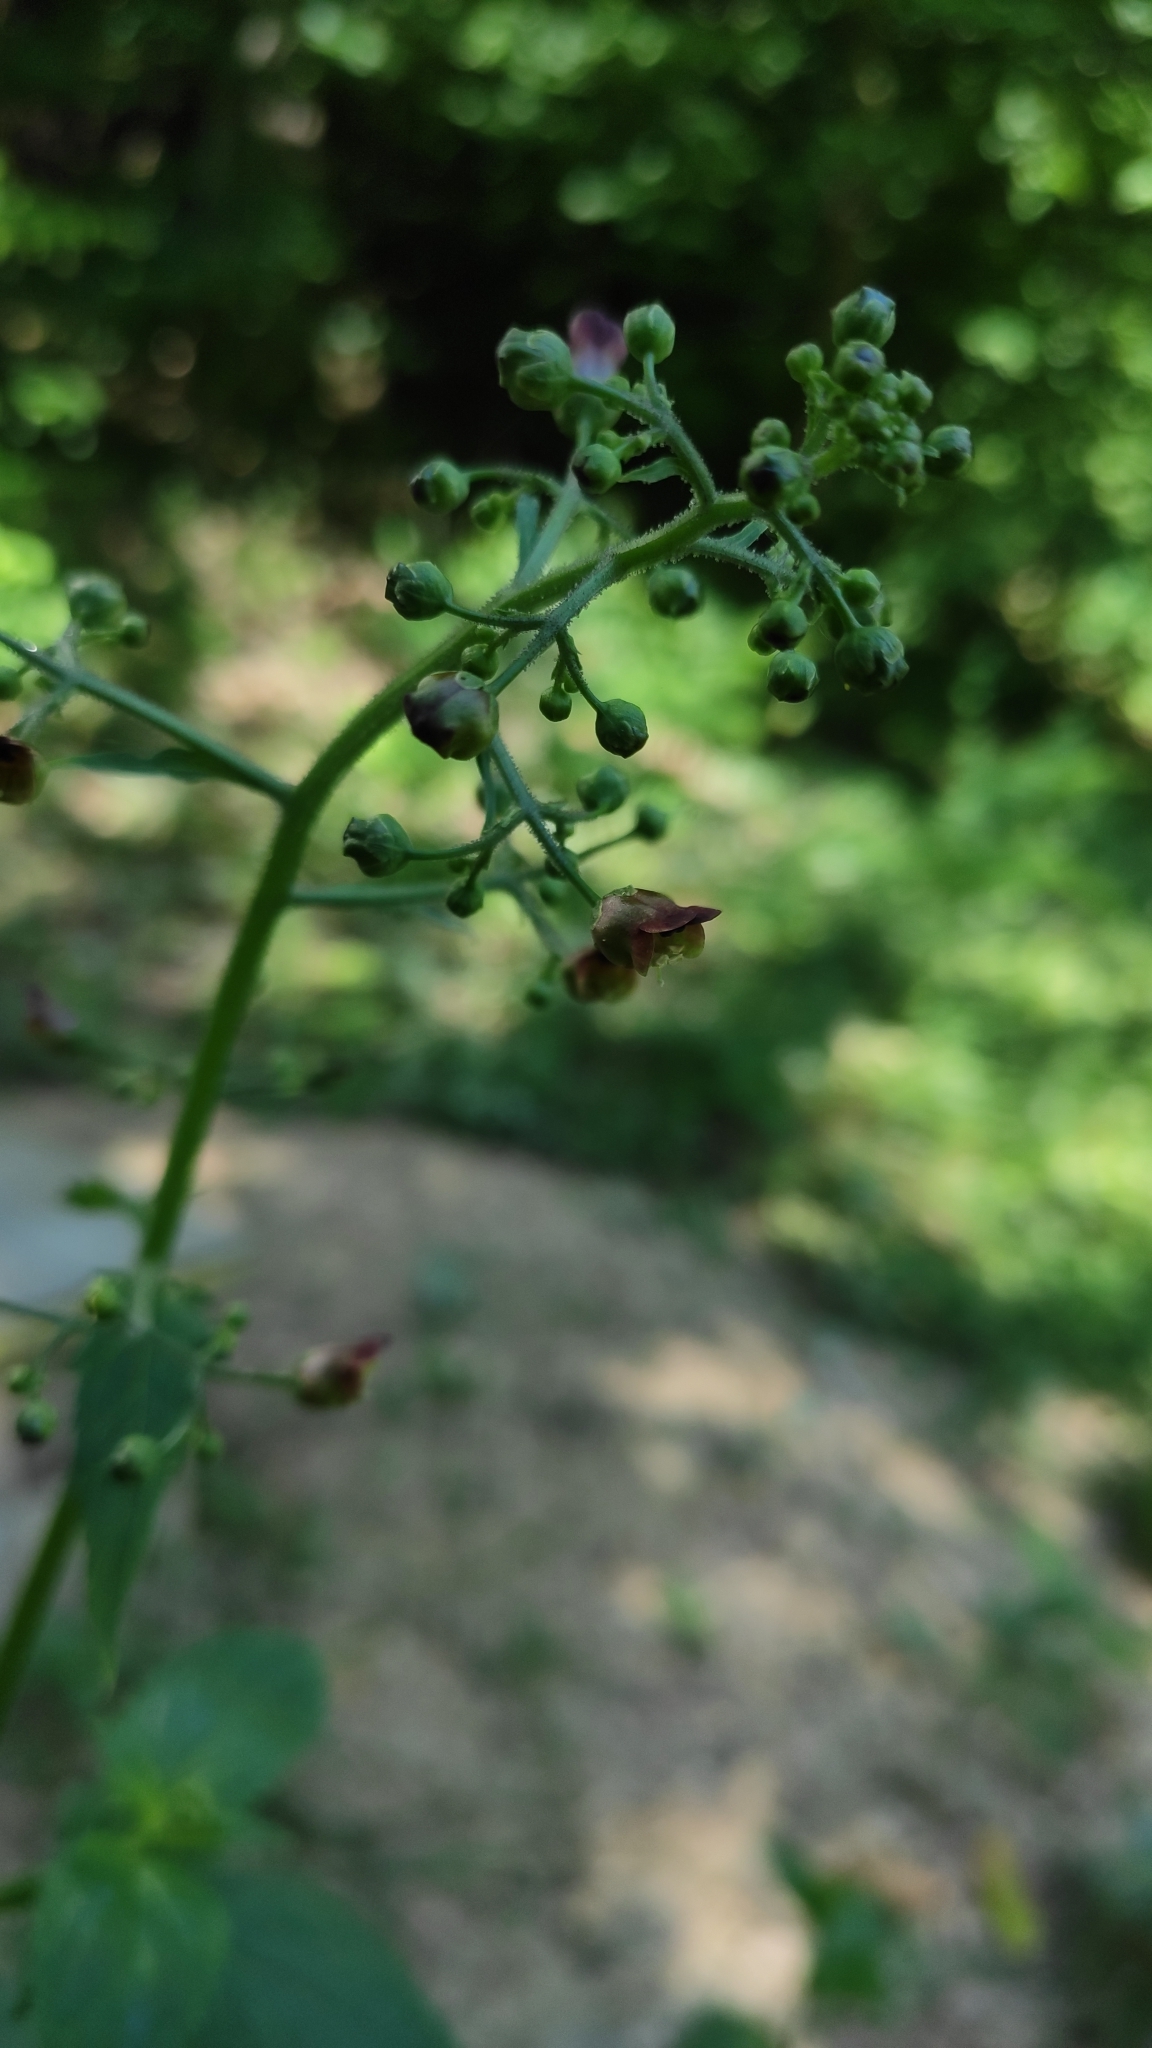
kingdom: Plantae
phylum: Tracheophyta
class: Magnoliopsida
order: Lamiales
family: Scrophulariaceae
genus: Scrophularia
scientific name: Scrophularia nodosa
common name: Common figwort
